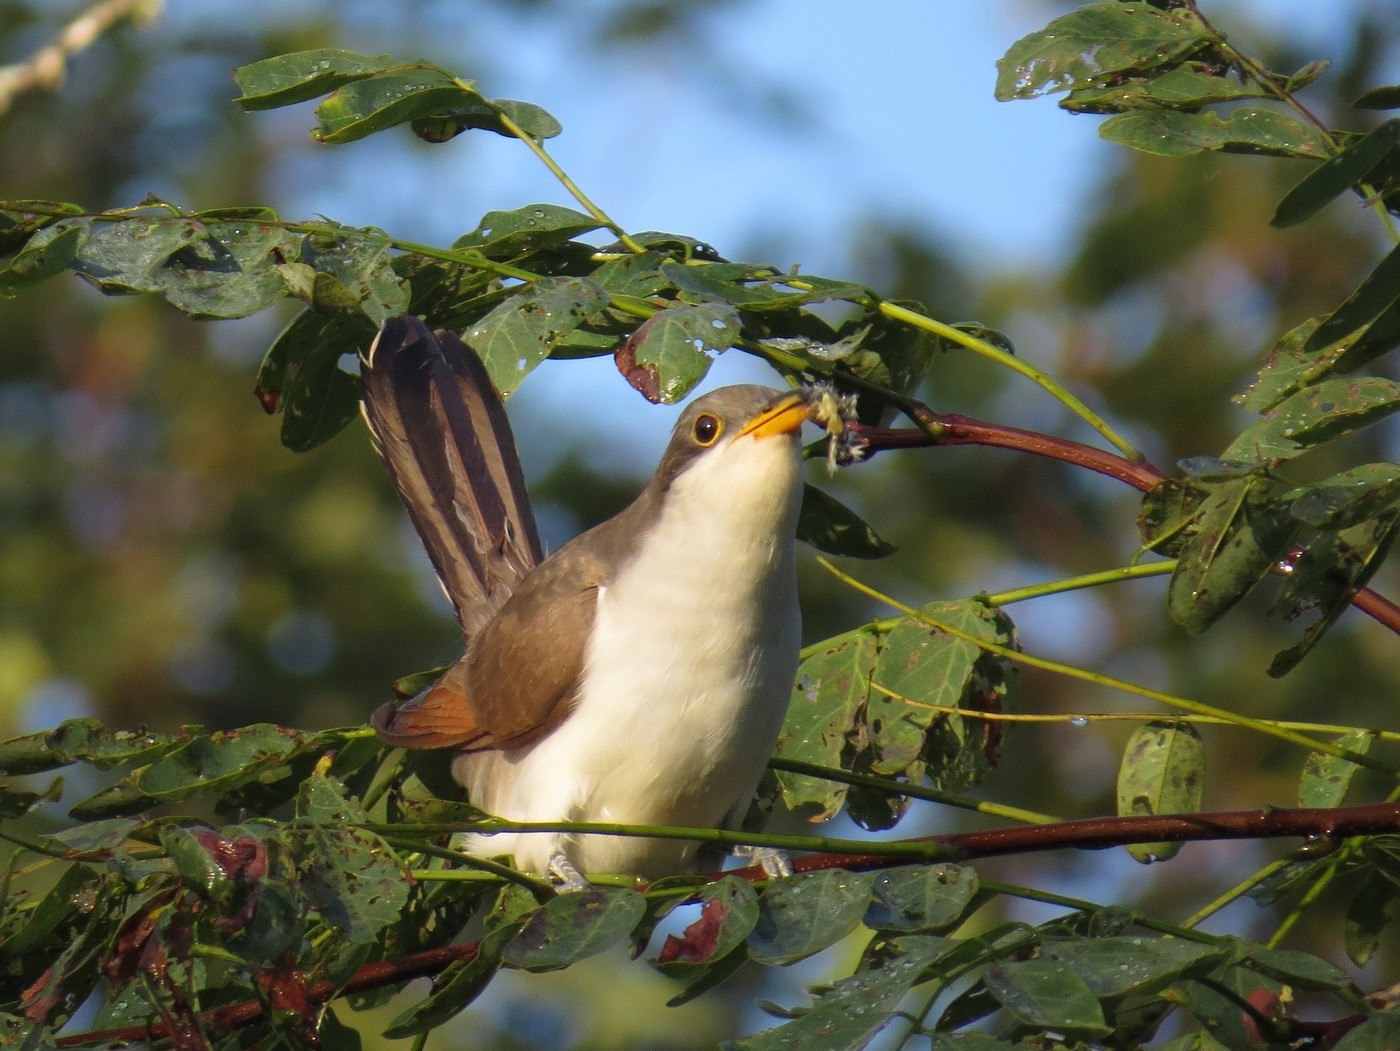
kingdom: Animalia
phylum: Chordata
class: Aves
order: Cuculiformes
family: Cuculidae
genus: Coccyzus
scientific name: Coccyzus americanus
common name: Yellow-billed cuckoo
